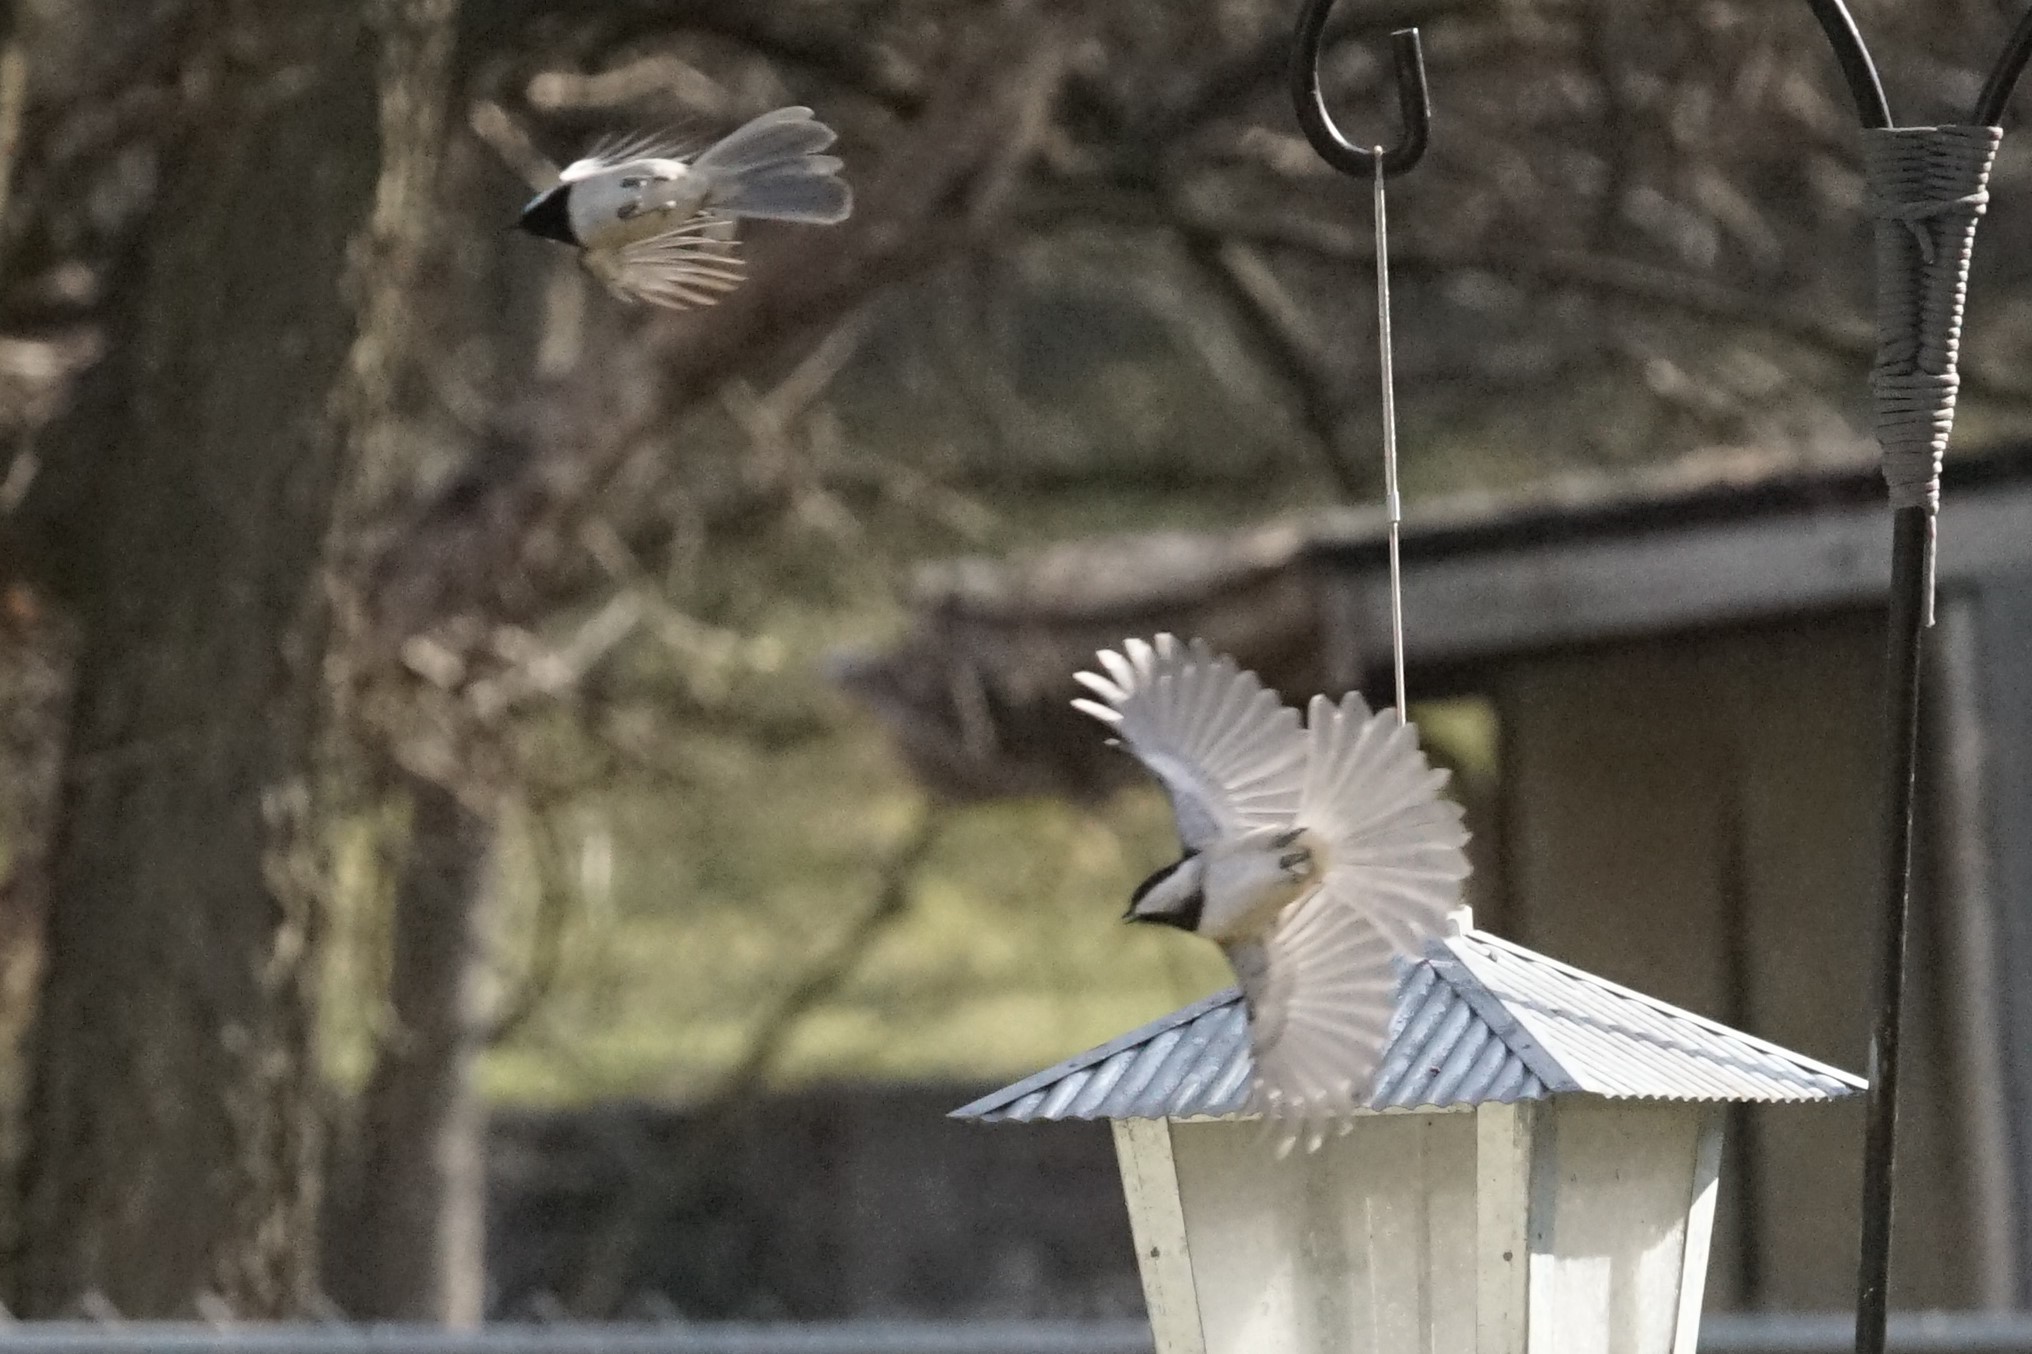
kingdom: Animalia
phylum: Chordata
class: Aves
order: Passeriformes
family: Paridae
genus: Poecile
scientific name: Poecile carolinensis
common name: Carolina chickadee
